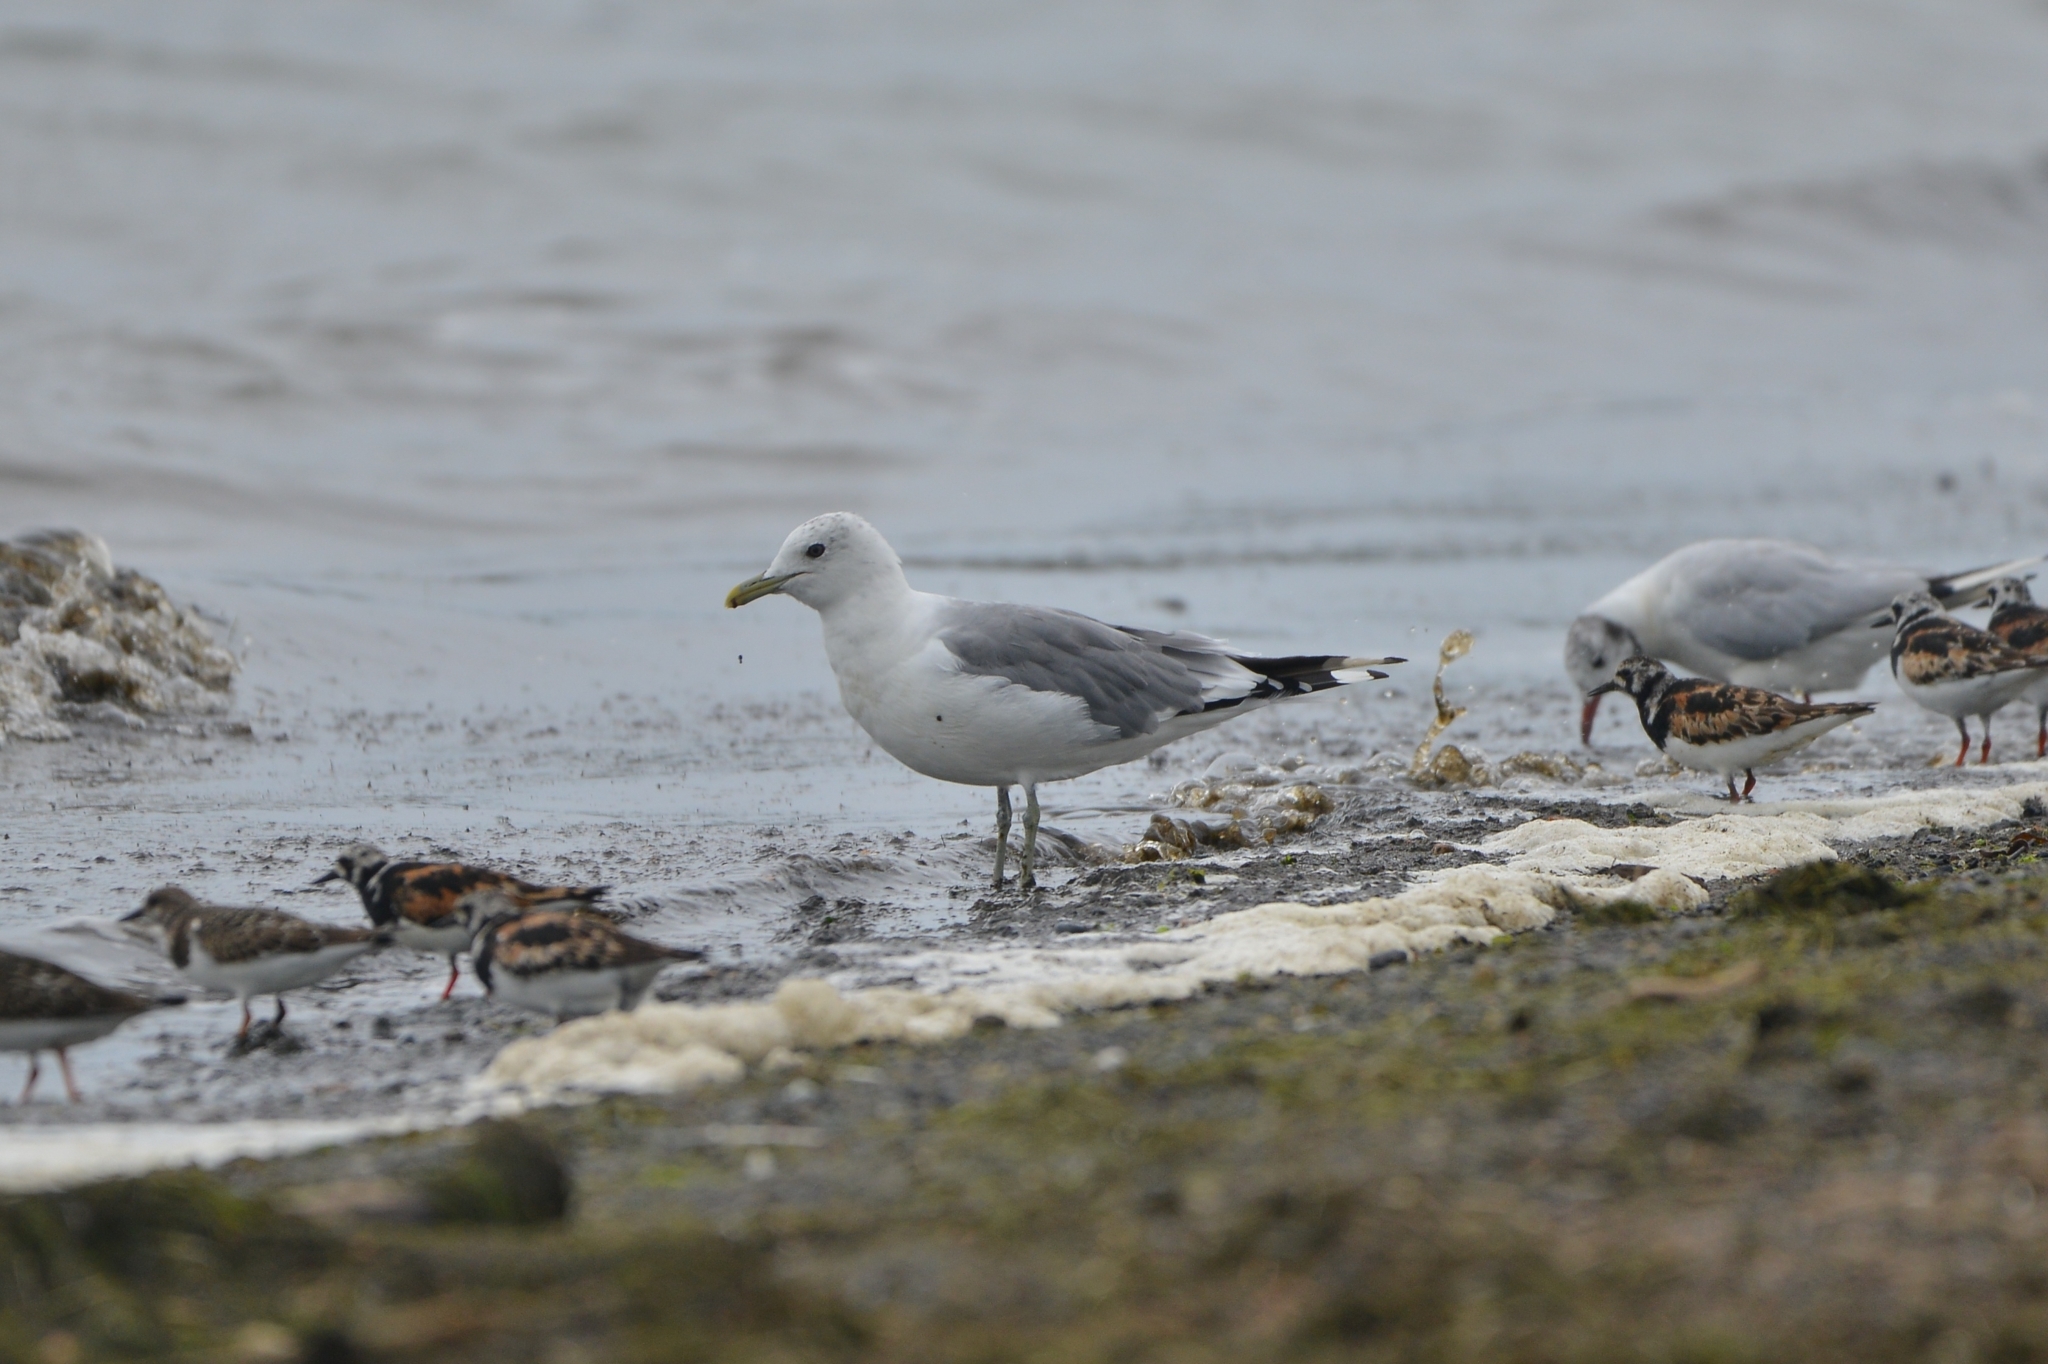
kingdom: Animalia
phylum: Chordata
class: Aves
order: Charadriiformes
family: Laridae
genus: Larus
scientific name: Larus canus
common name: Mew gull
